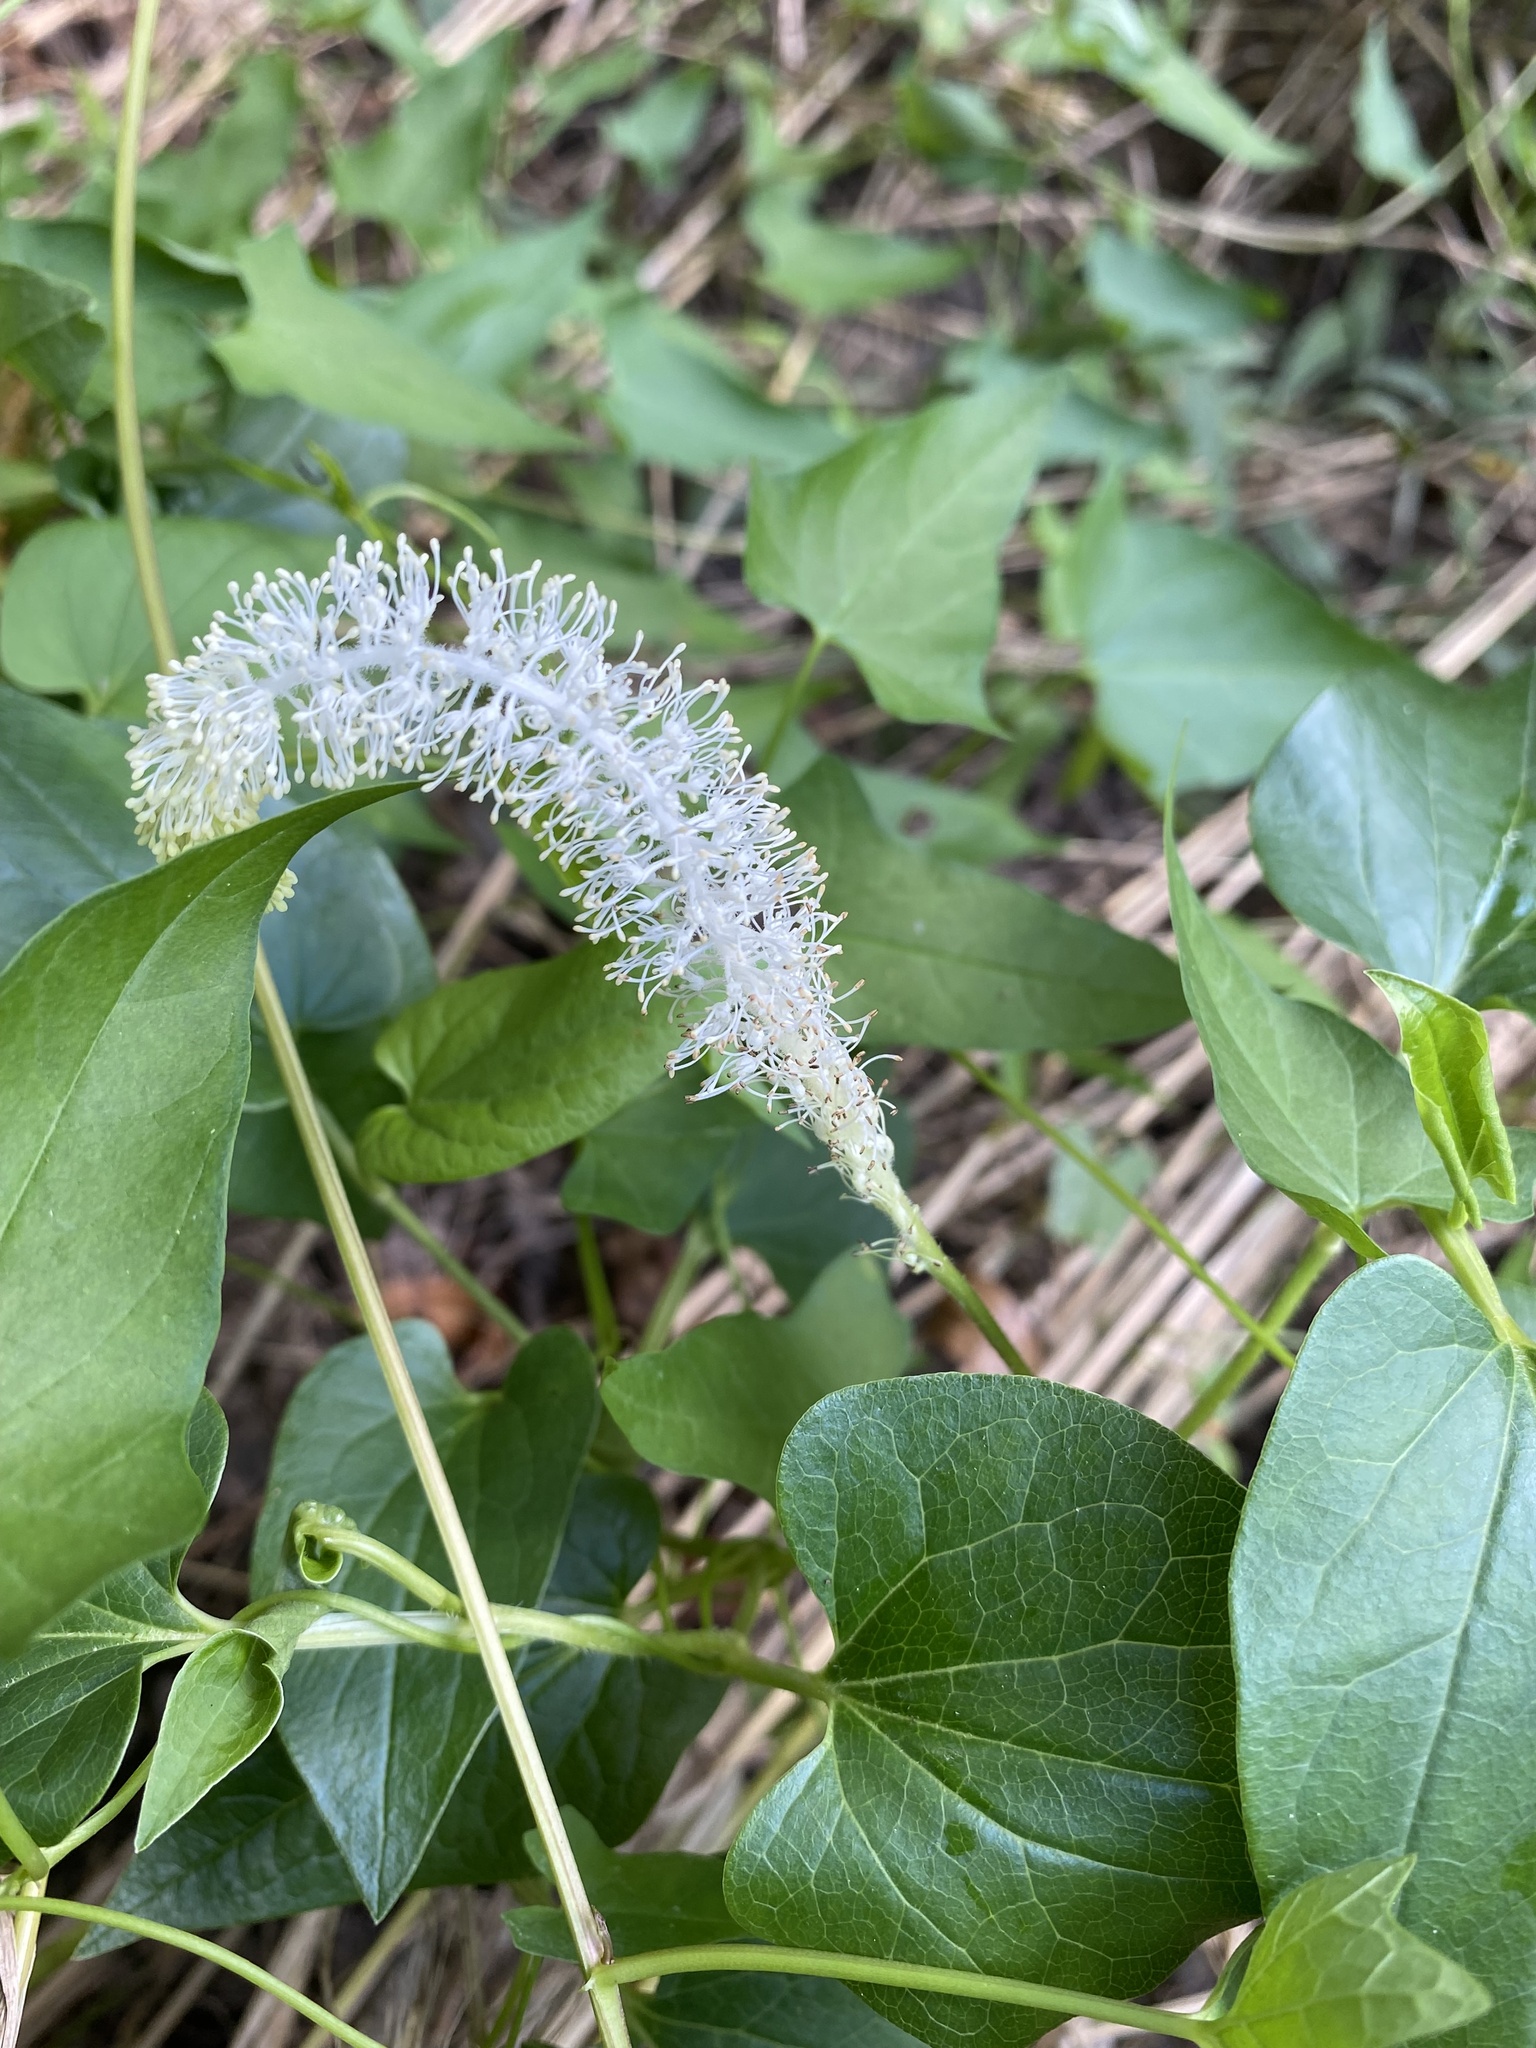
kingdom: Plantae
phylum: Tracheophyta
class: Magnoliopsida
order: Piperales
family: Saururaceae
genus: Saururus
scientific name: Saururus cernuus
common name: Lizard's-tail
